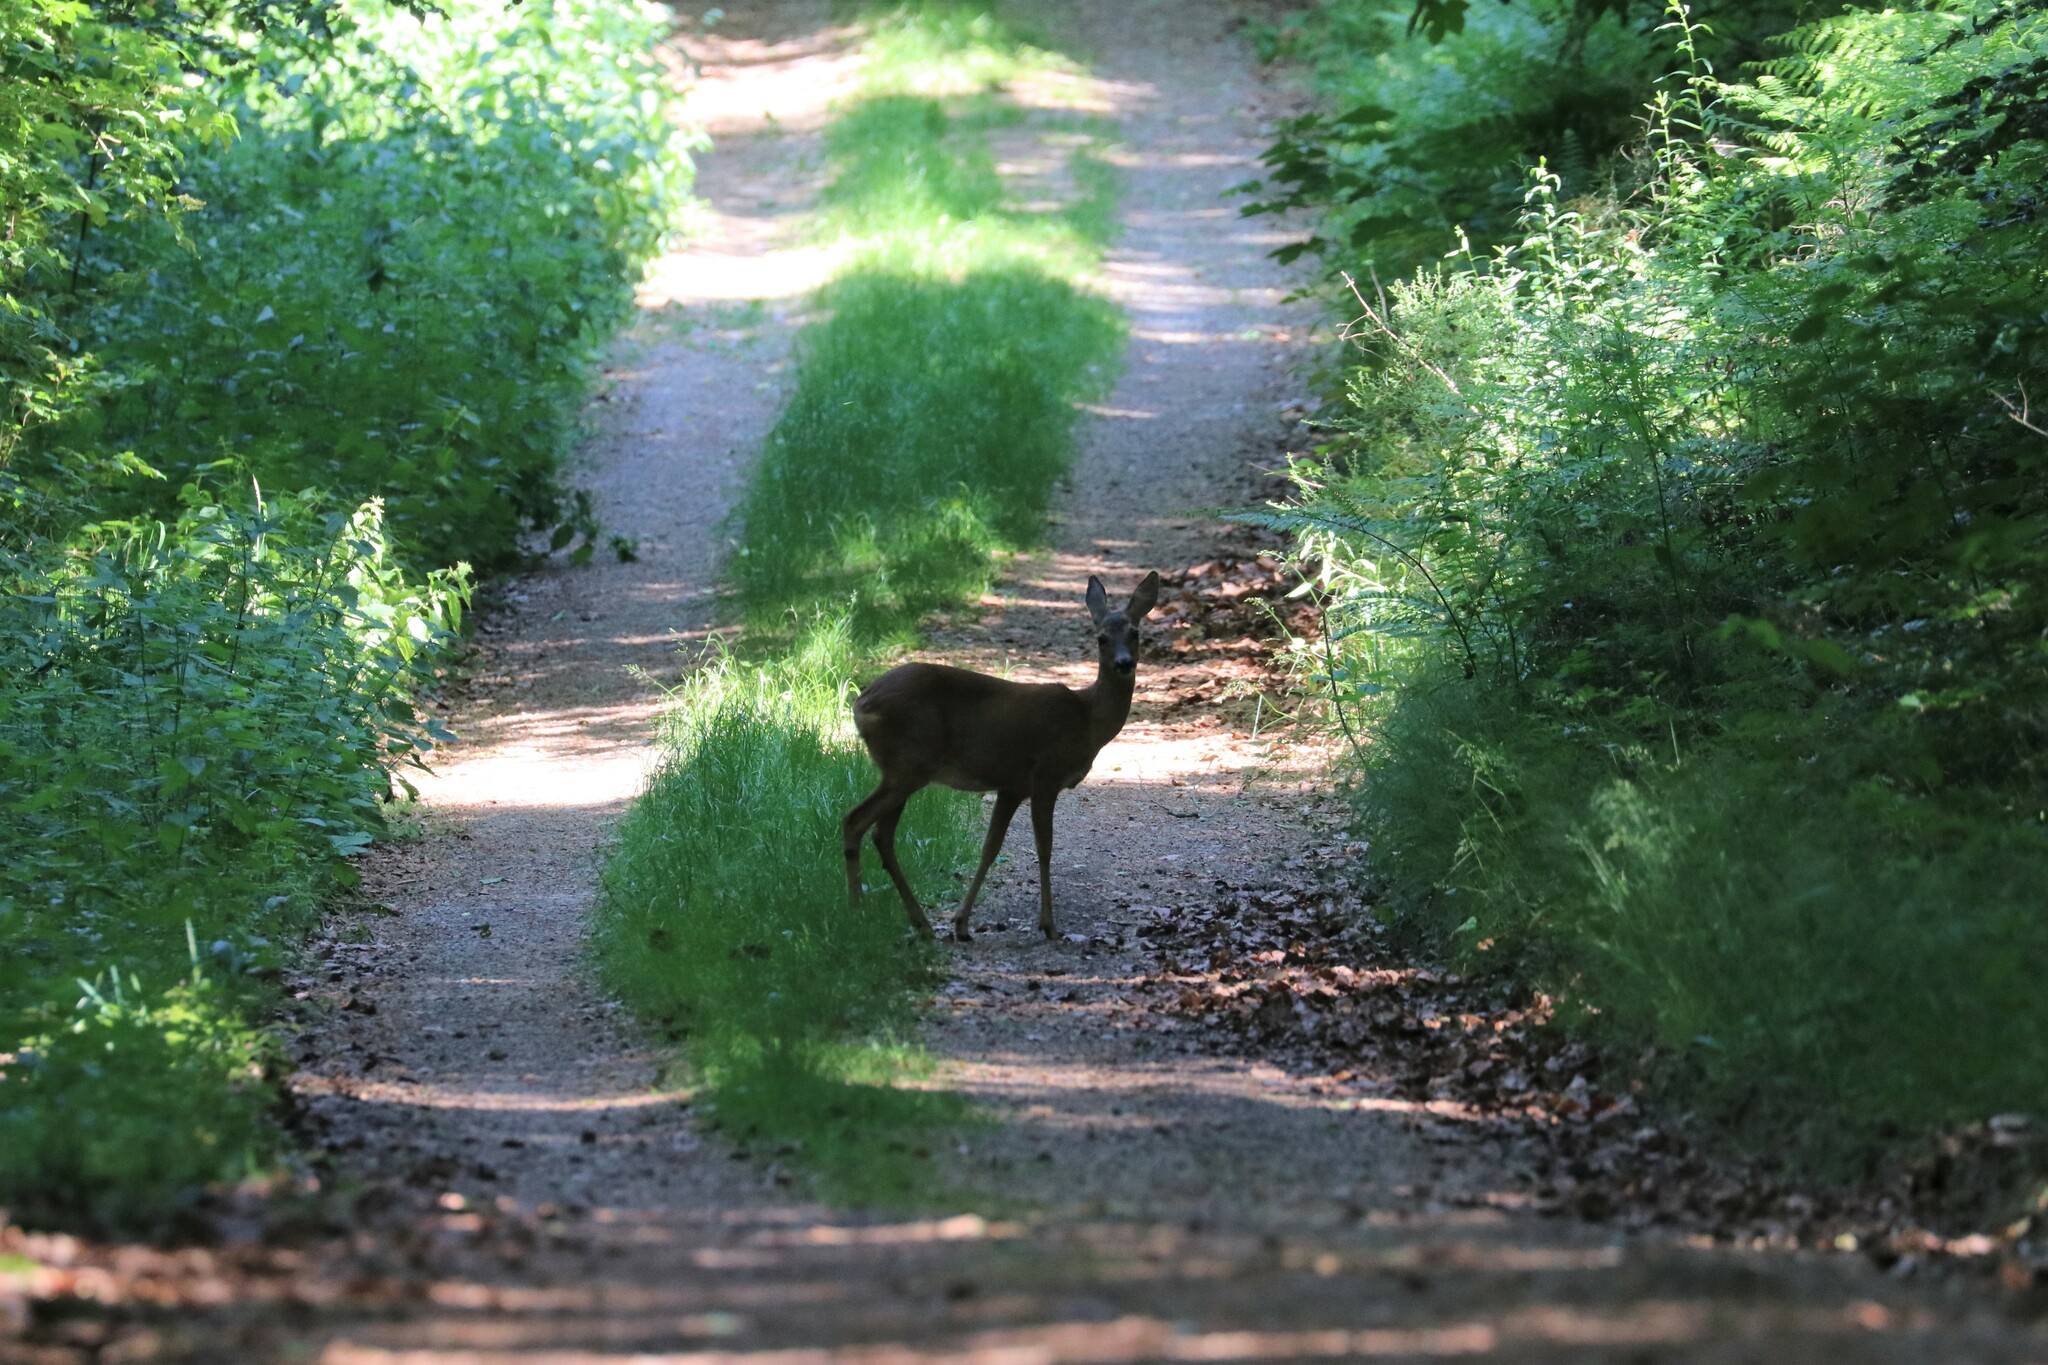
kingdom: Animalia
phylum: Chordata
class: Mammalia
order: Artiodactyla
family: Cervidae
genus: Capreolus
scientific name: Capreolus capreolus
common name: Western roe deer
